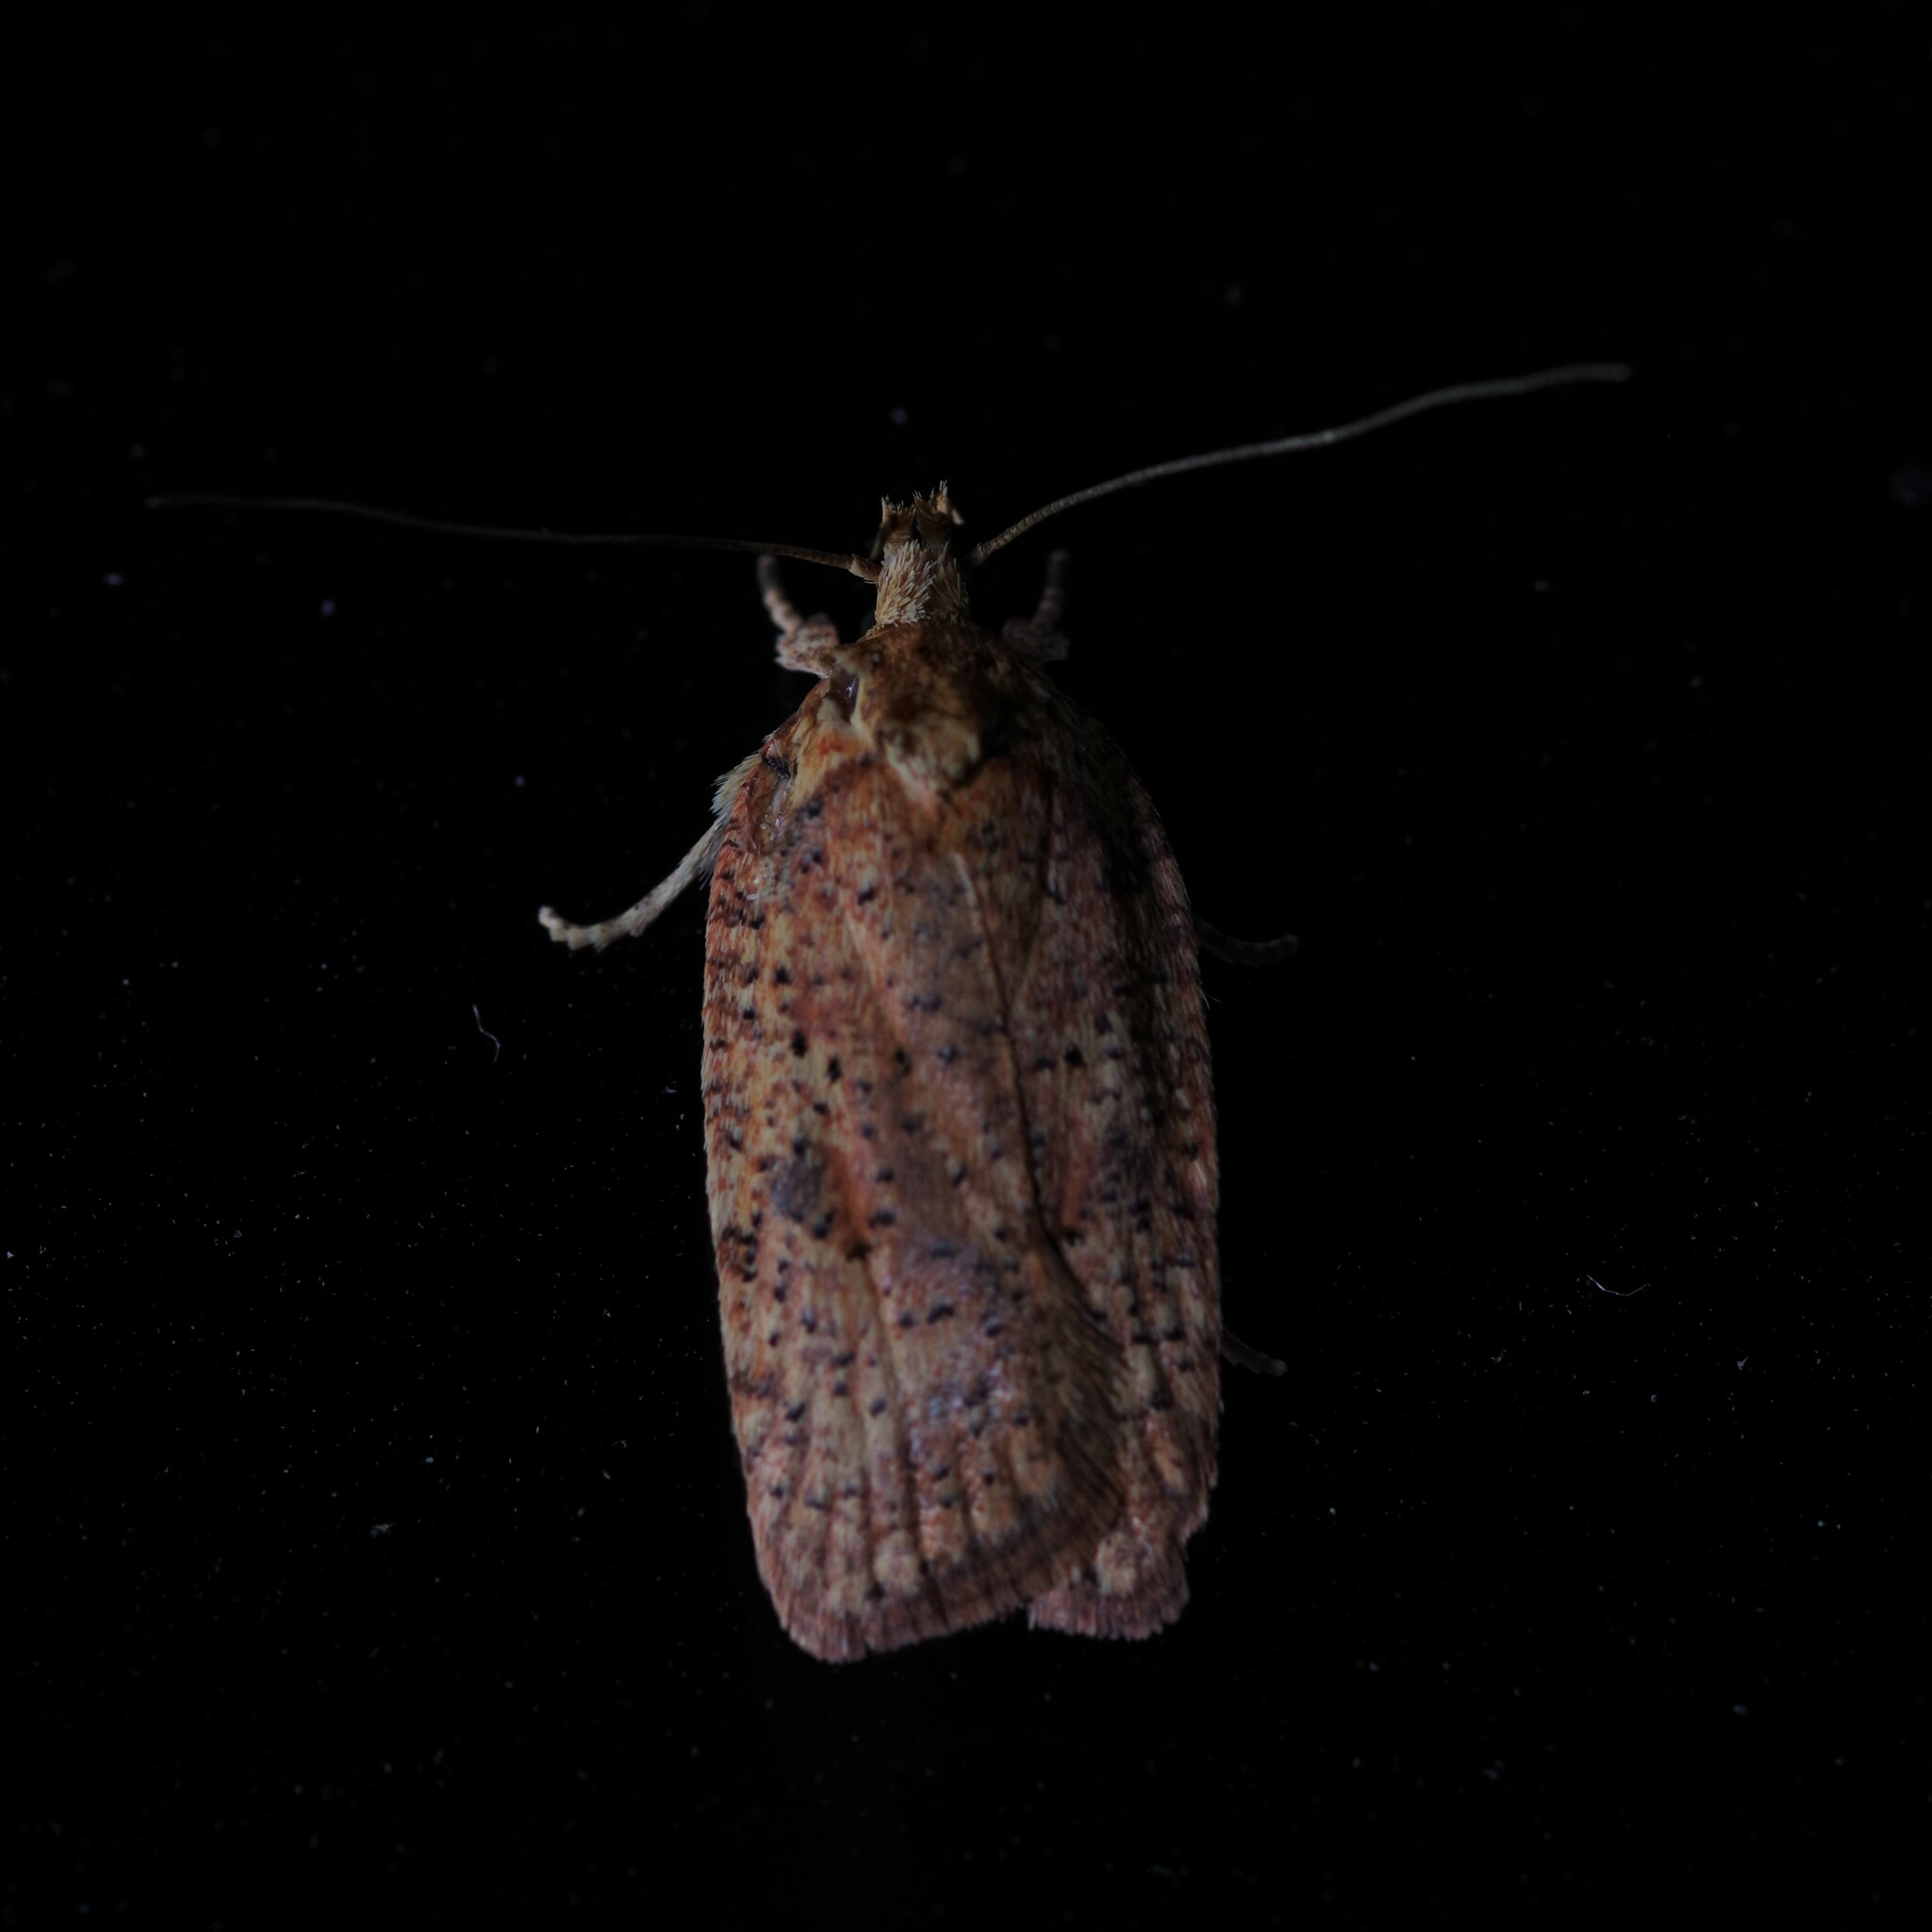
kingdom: Animalia
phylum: Arthropoda
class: Insecta
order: Lepidoptera
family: Depressariidae
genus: Agonopterix
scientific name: Agonopterix thelmae
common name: Thelma's agonopterix moth
